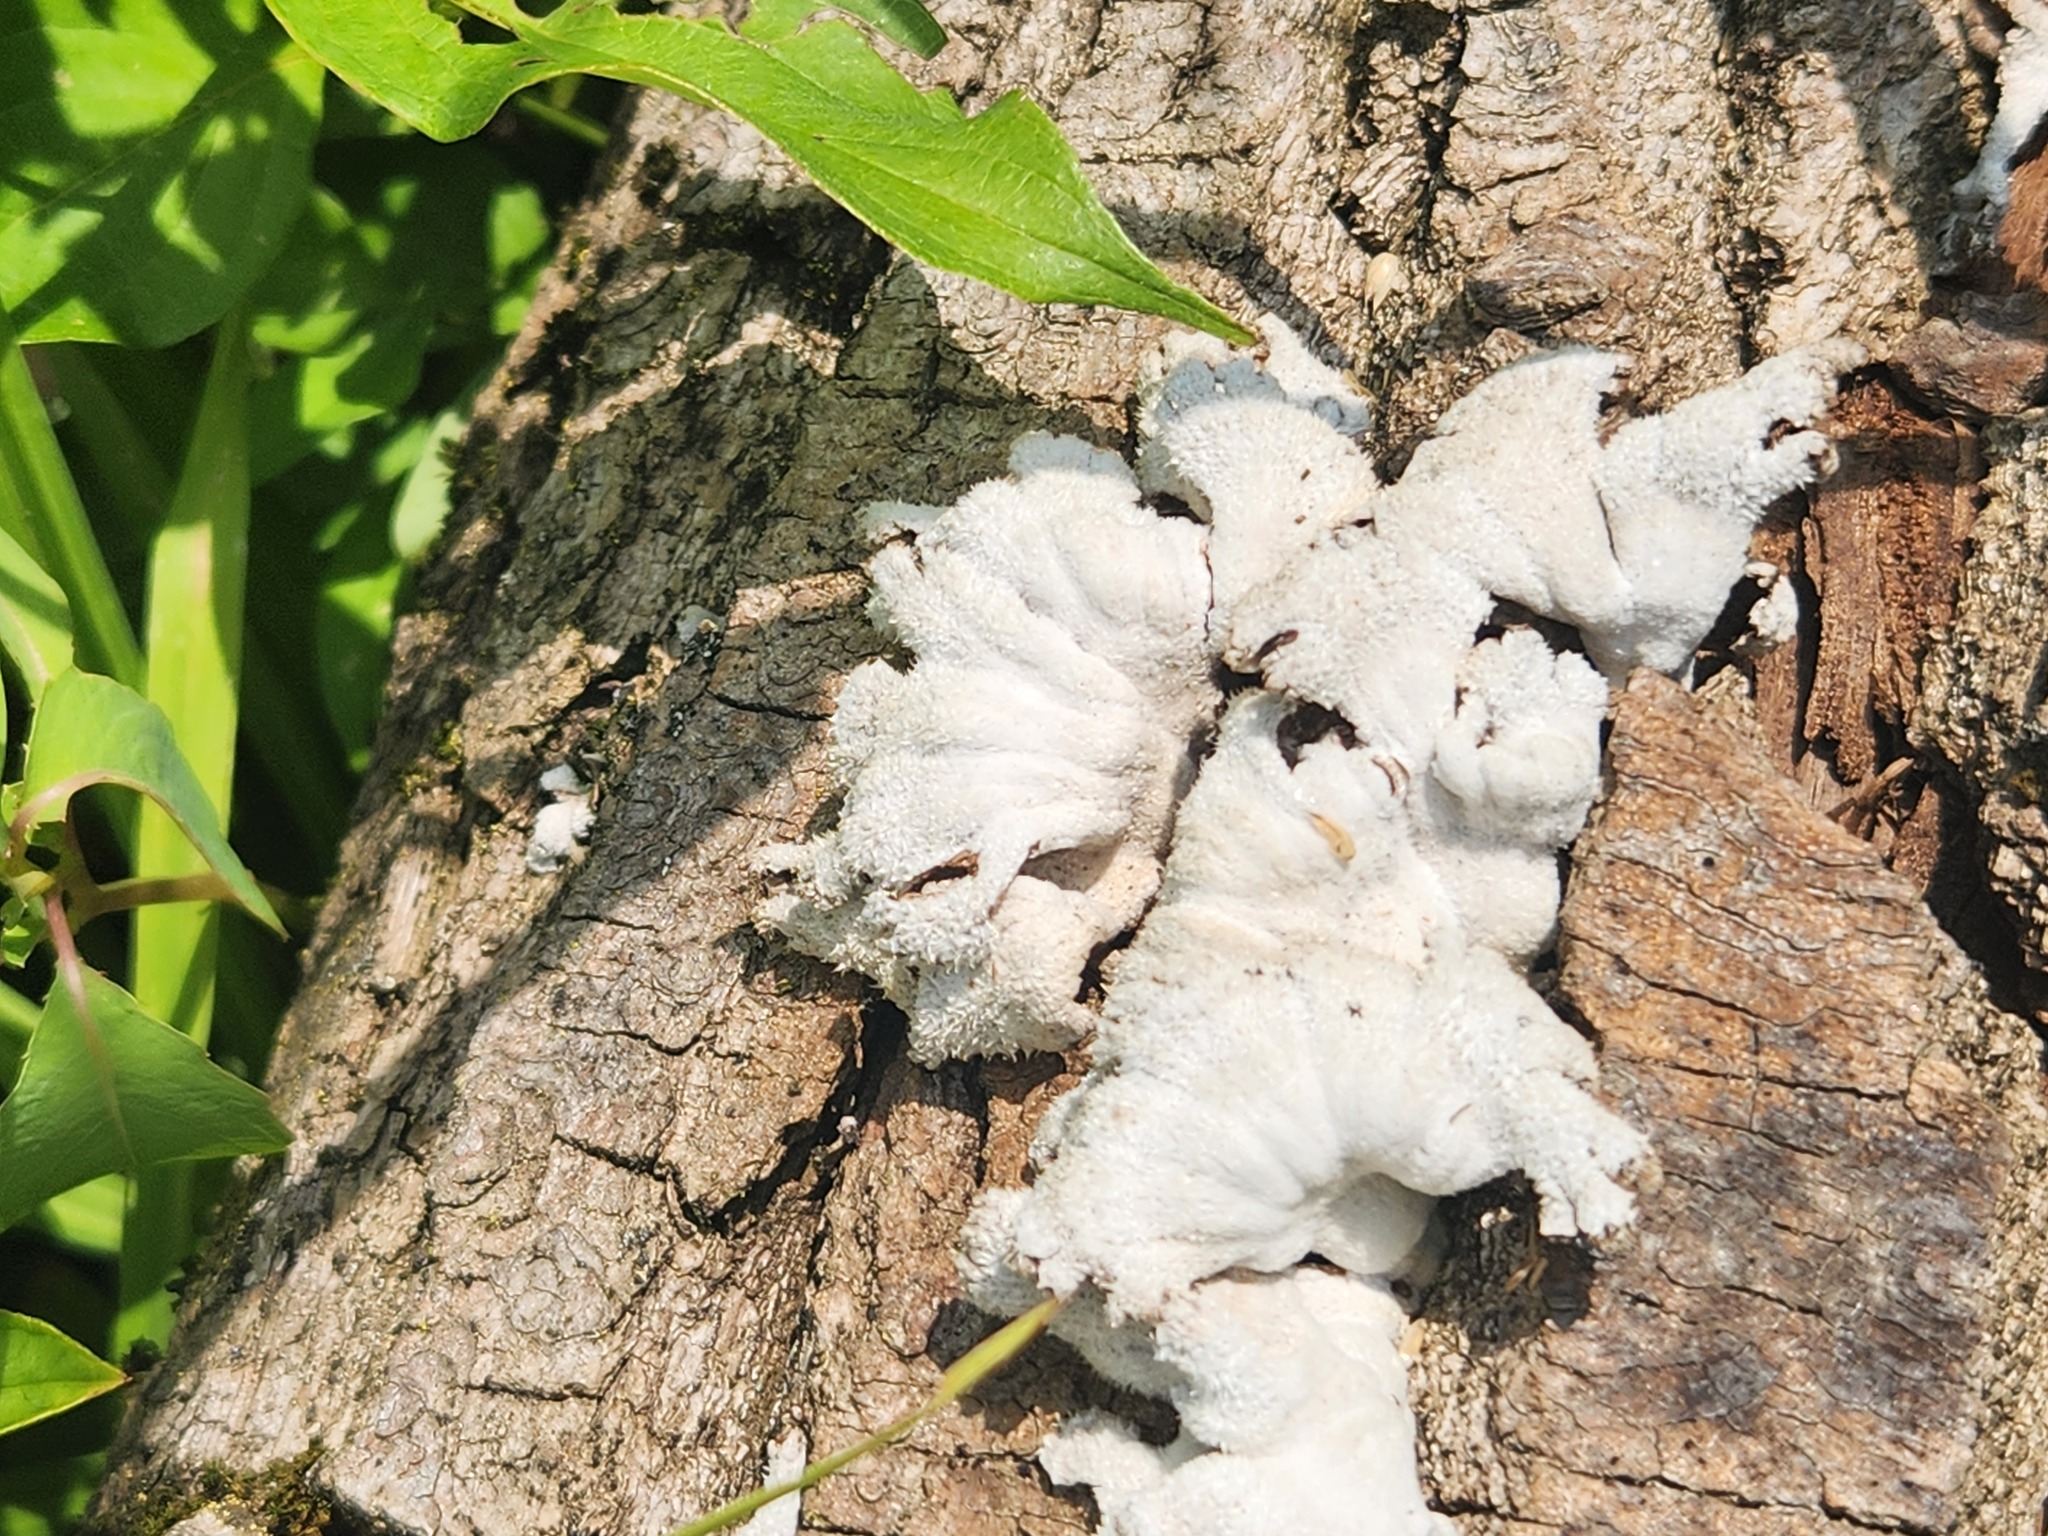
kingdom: Fungi
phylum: Basidiomycota
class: Agaricomycetes
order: Agaricales
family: Schizophyllaceae
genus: Schizophyllum
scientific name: Schizophyllum commune
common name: Common porecrust
